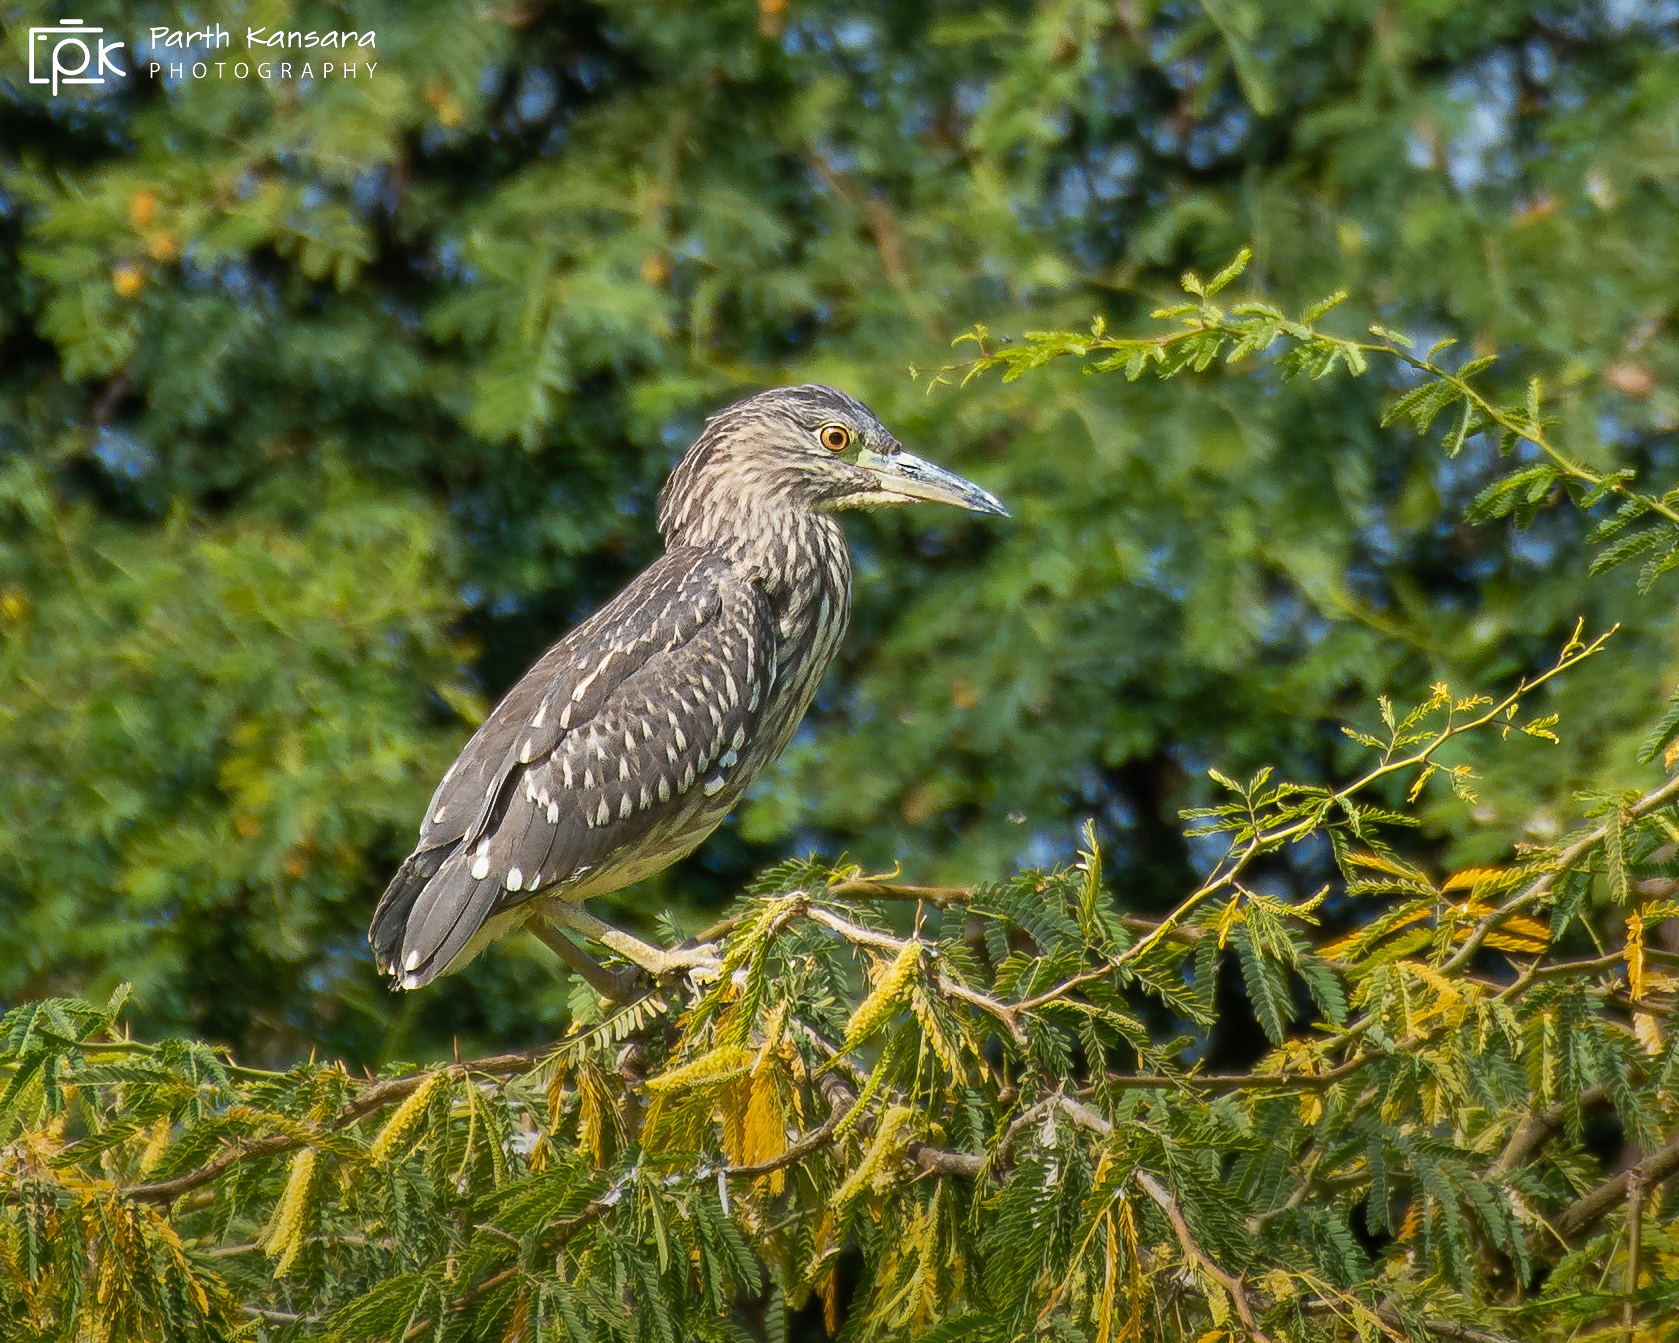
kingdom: Animalia
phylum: Chordata
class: Aves
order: Pelecaniformes
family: Ardeidae
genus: Nycticorax
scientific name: Nycticorax nycticorax
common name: Black-crowned night heron
